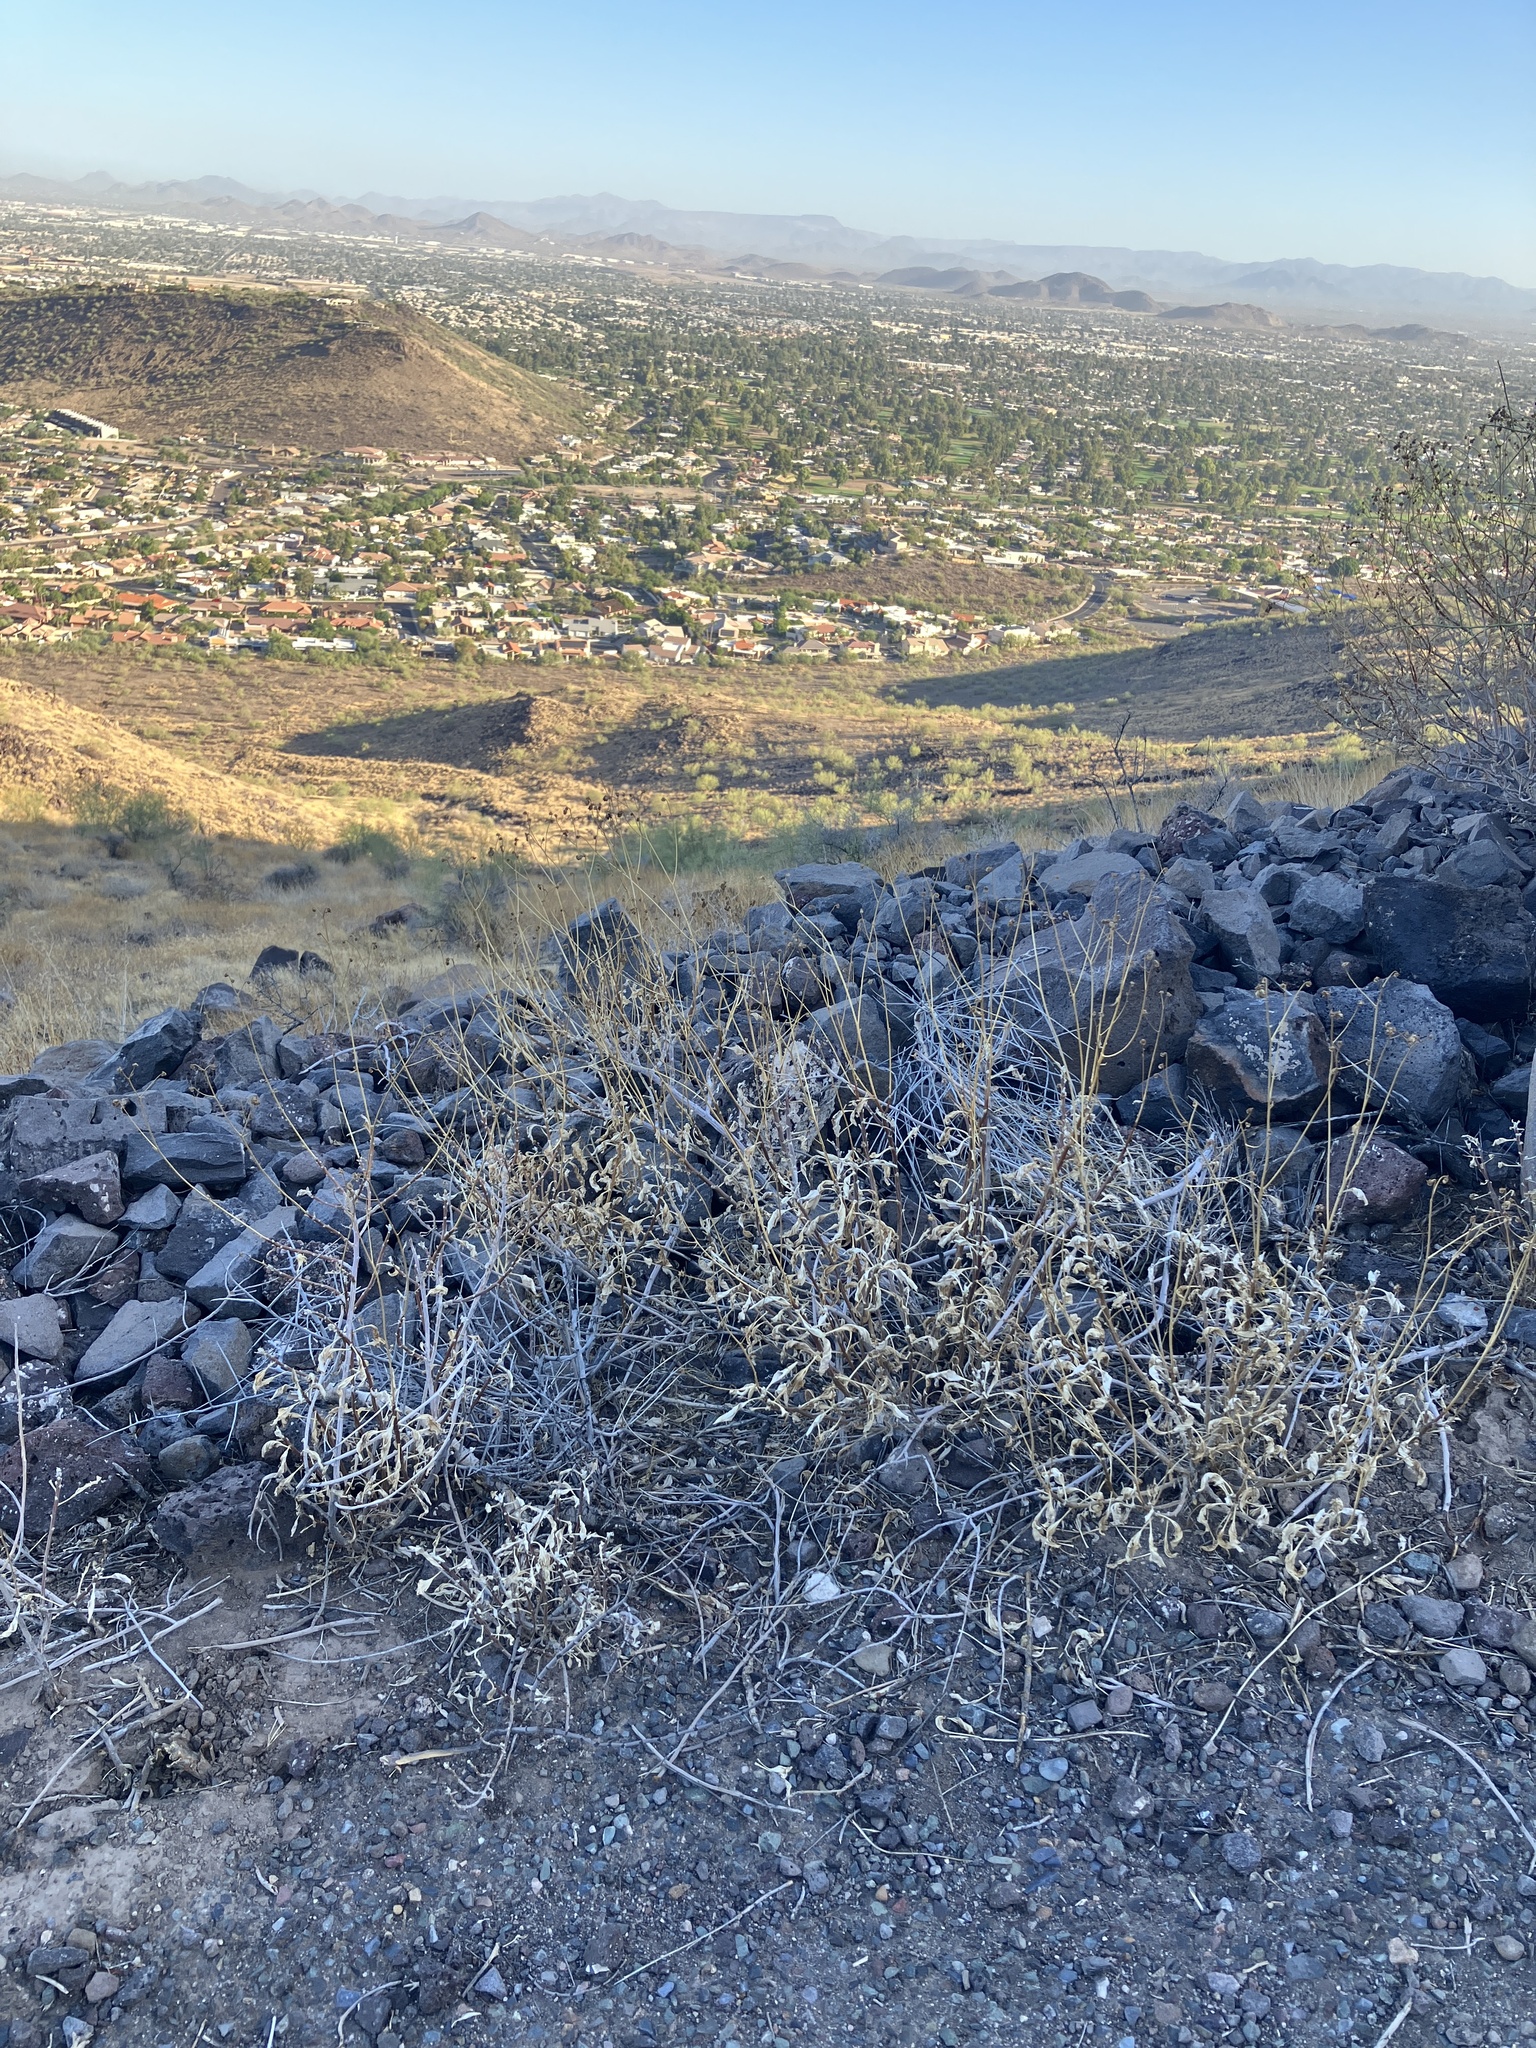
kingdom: Plantae
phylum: Tracheophyta
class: Magnoliopsida
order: Asterales
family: Asteraceae
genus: Encelia
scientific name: Encelia farinosa
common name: Brittlebush
